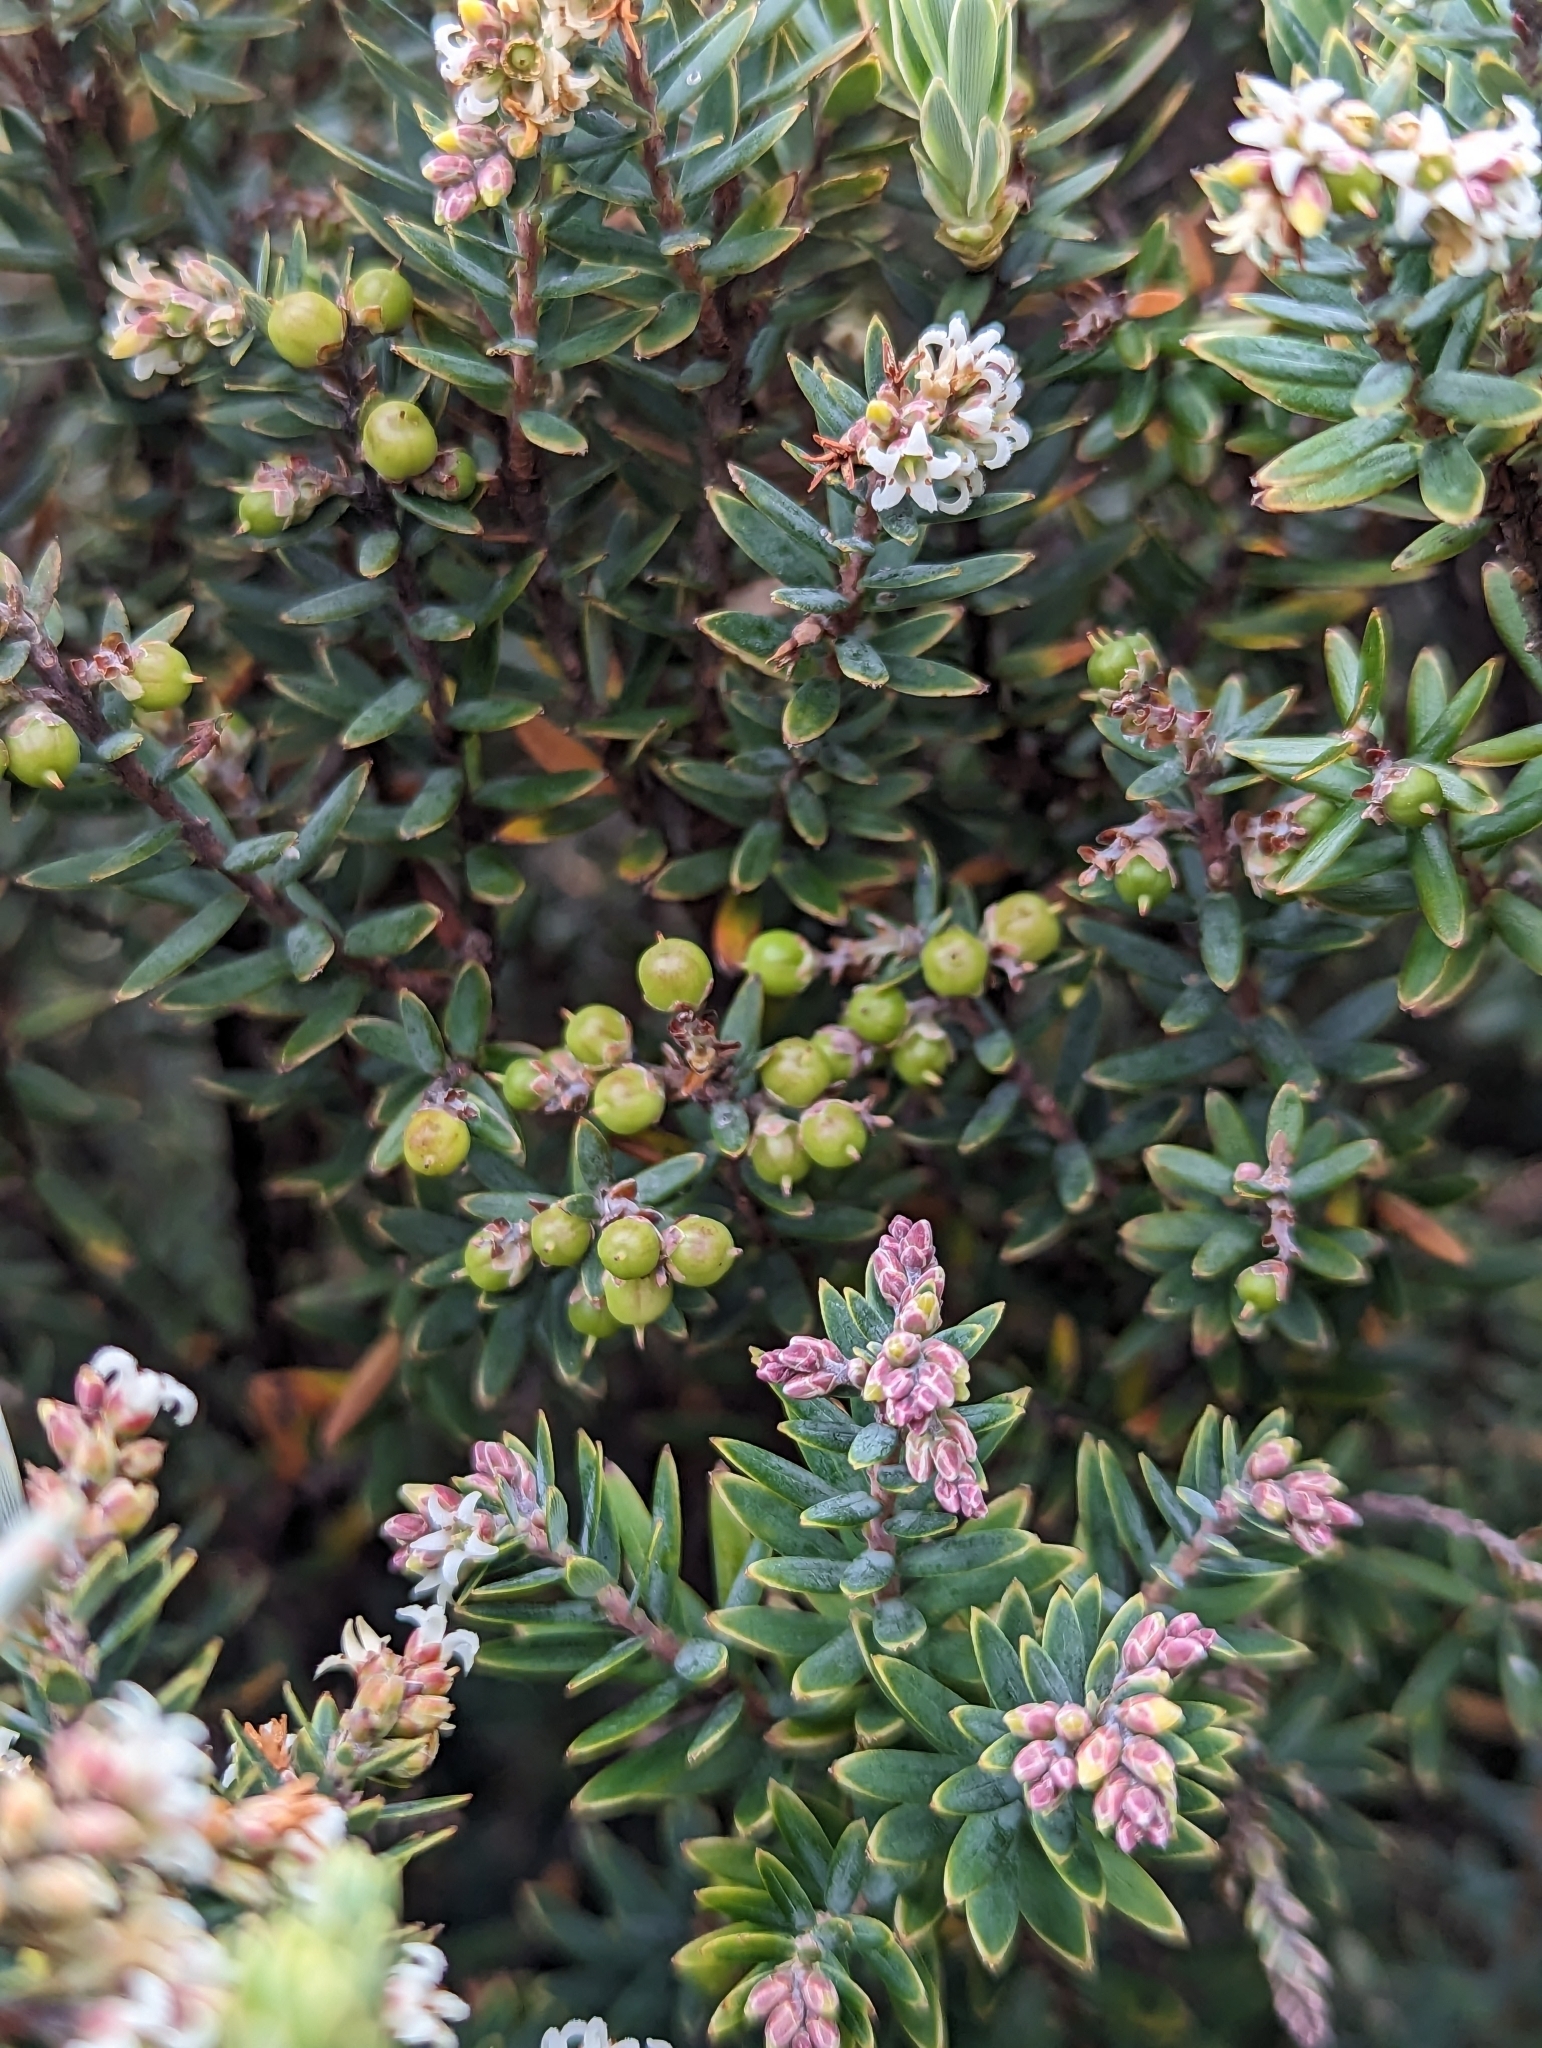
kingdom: Plantae
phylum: Tracheophyta
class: Magnoliopsida
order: Ericales
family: Ericaceae
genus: Acrothamnus
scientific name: Acrothamnus suaveolens
